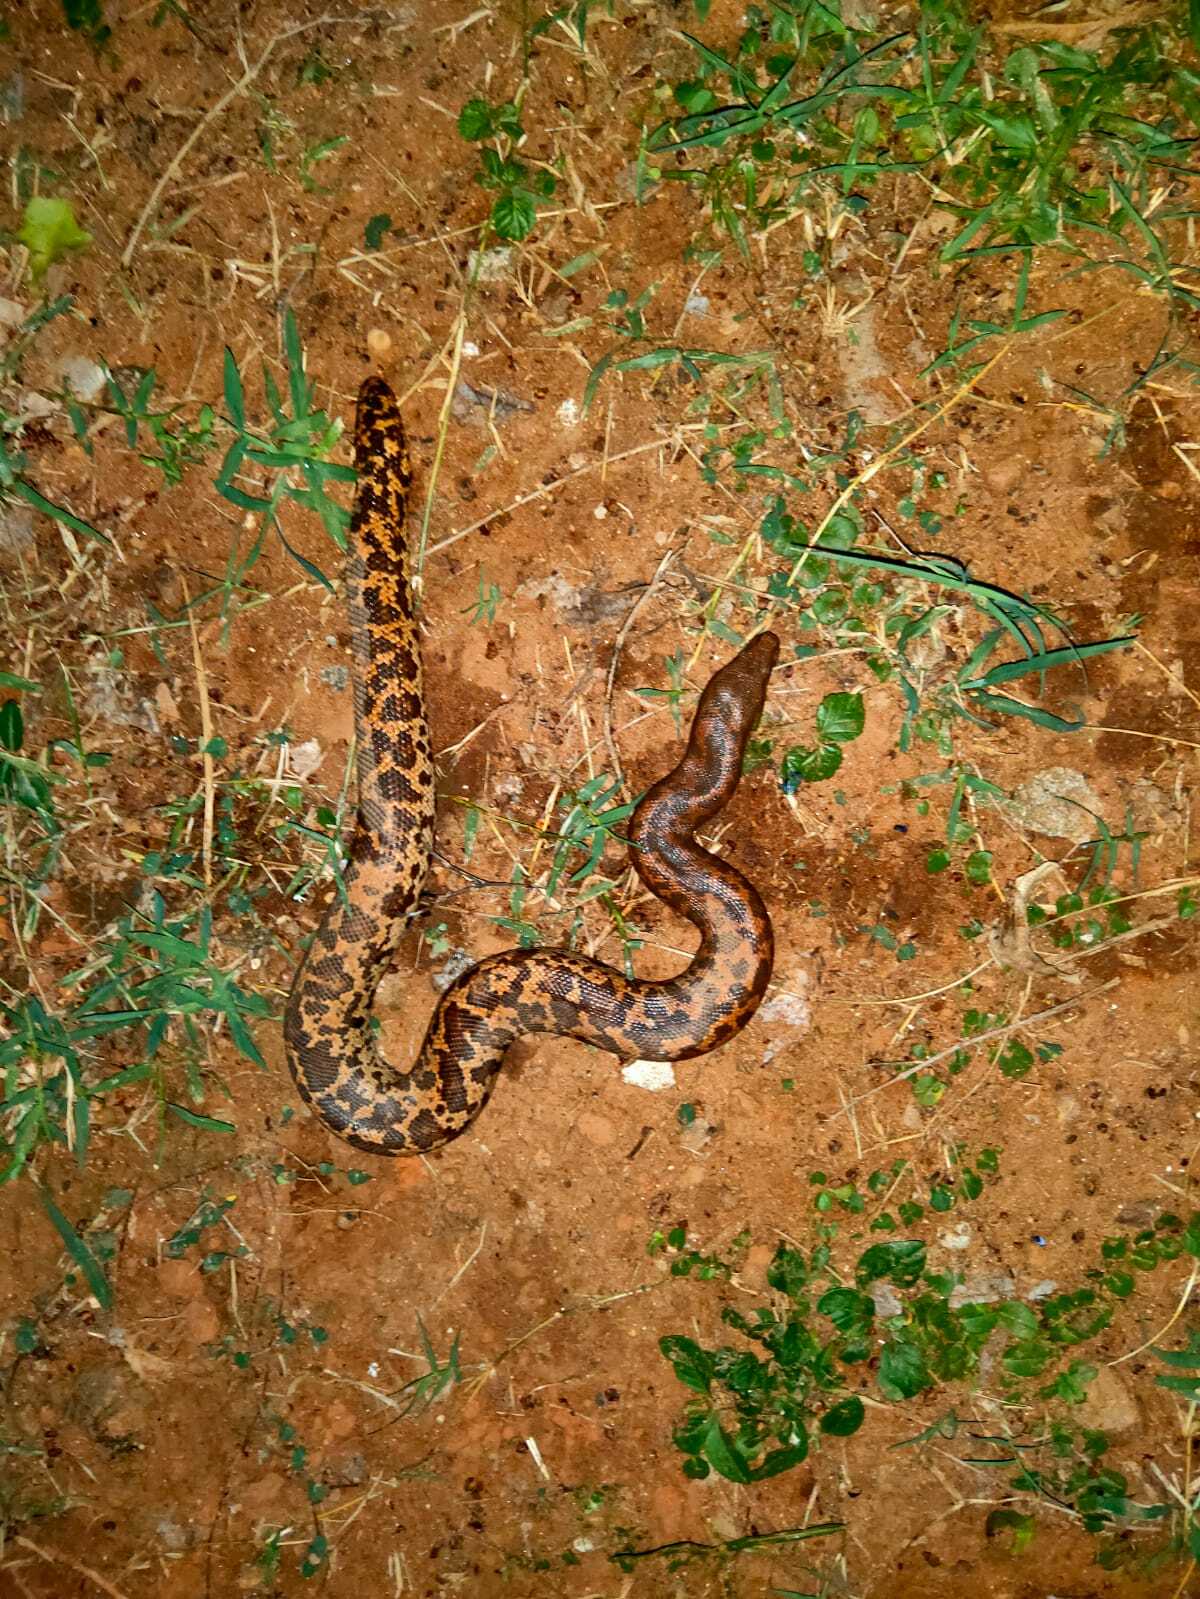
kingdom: Animalia
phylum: Chordata
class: Squamata
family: Boidae
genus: Eryx
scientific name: Eryx conicus
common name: Rough-tailed sand boa
